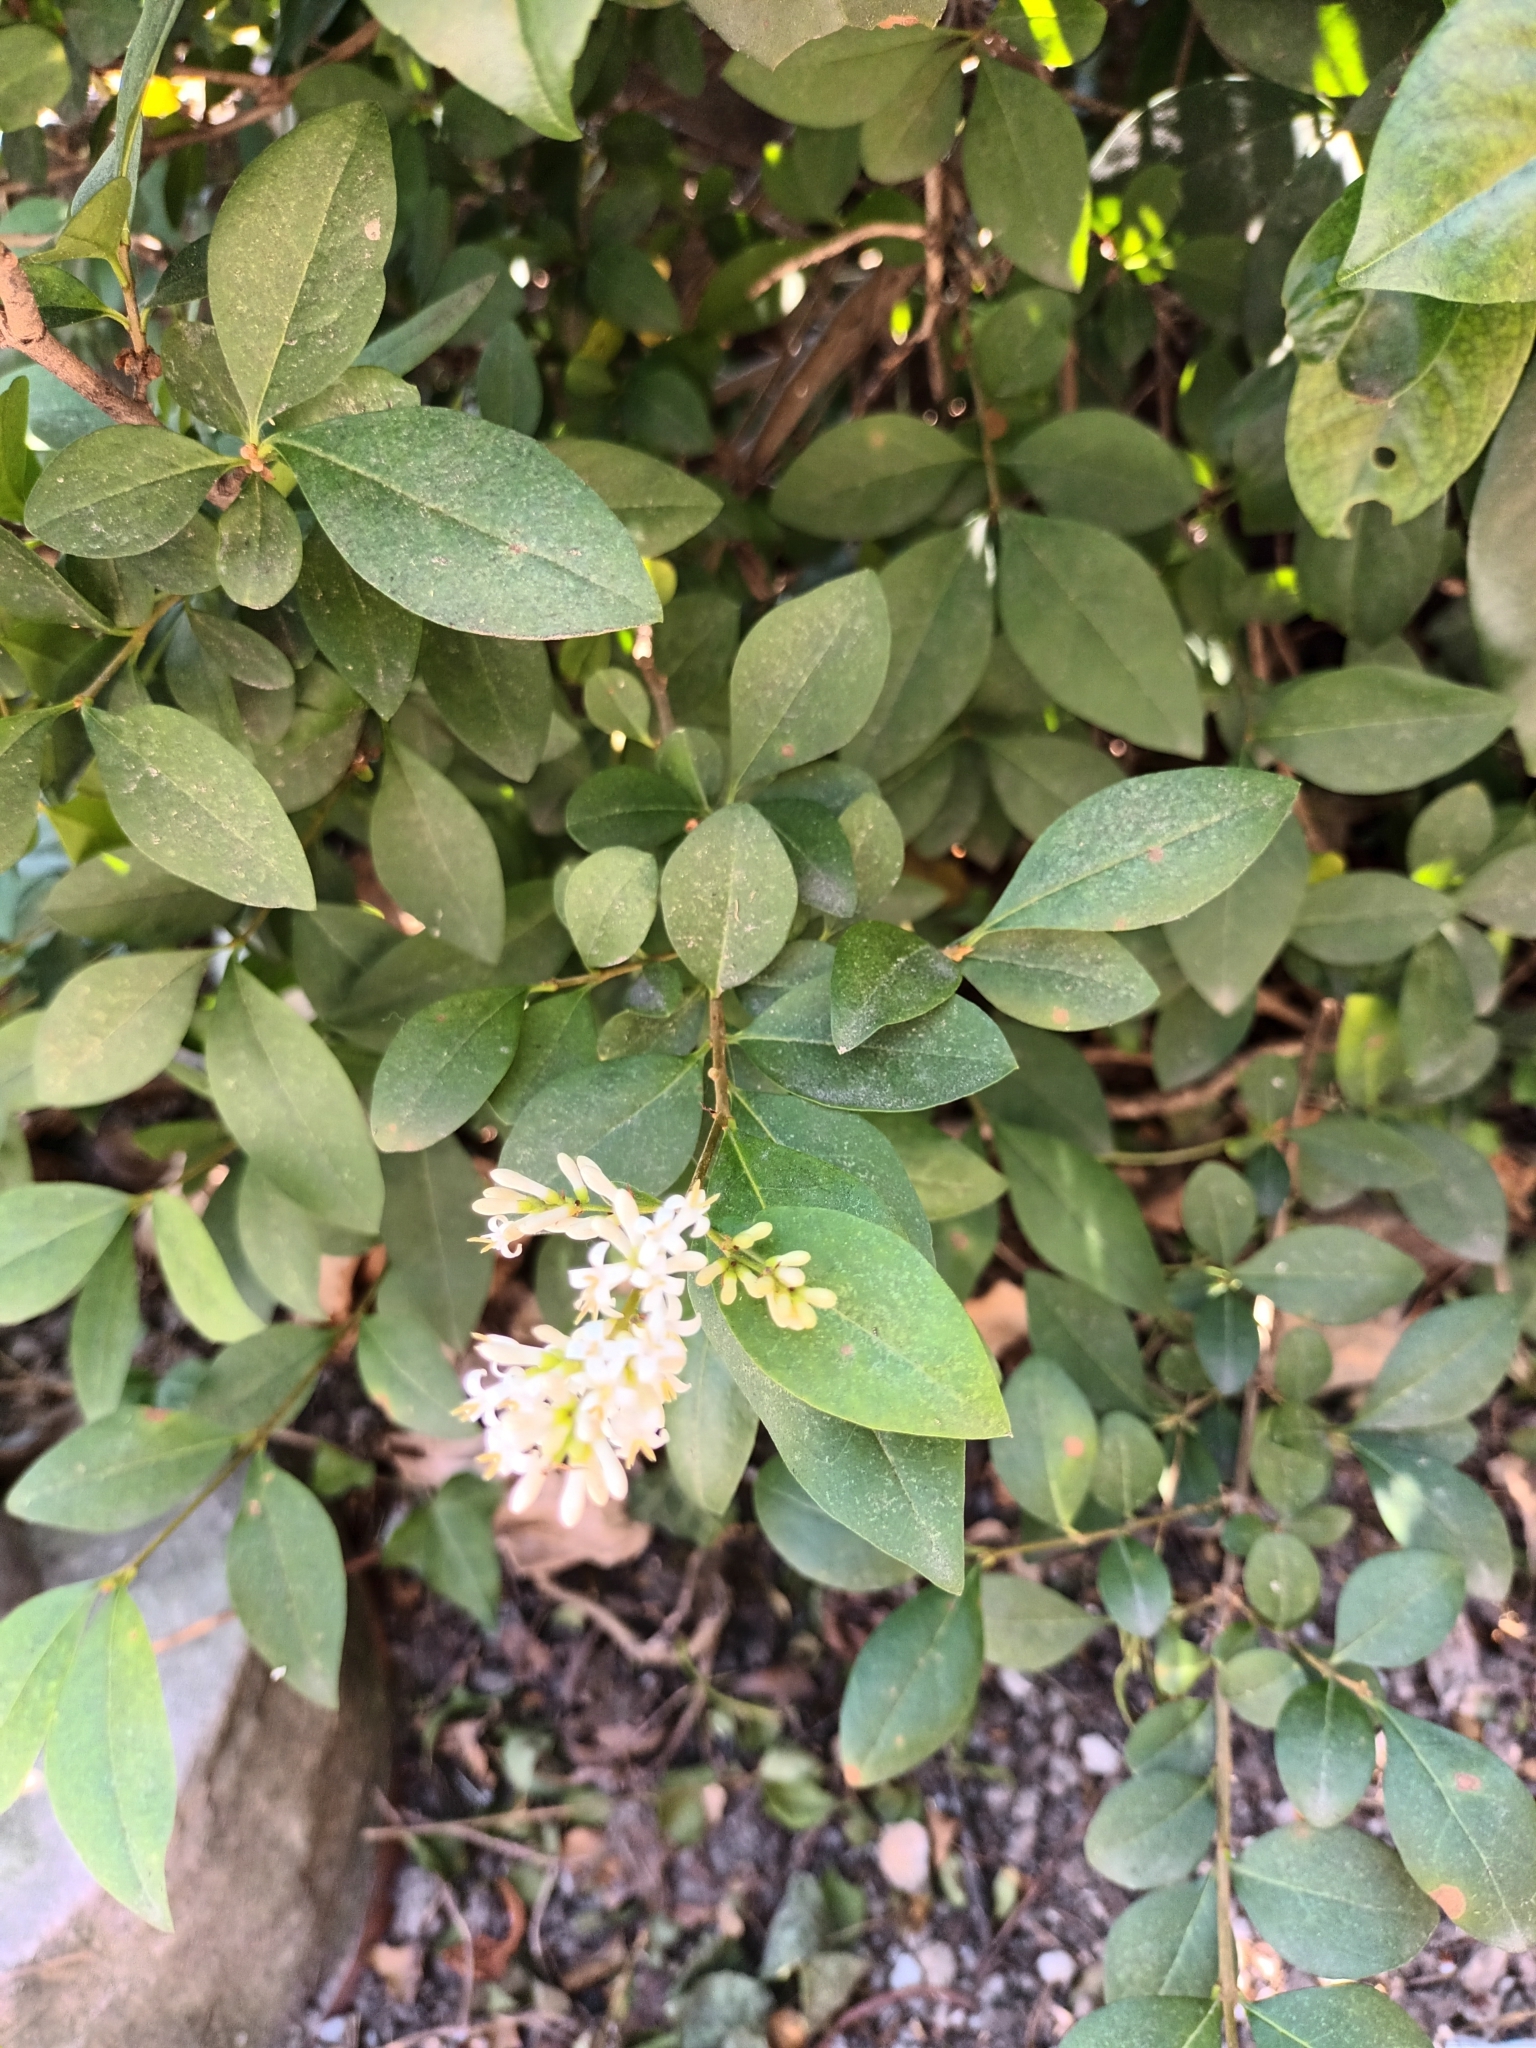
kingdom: Plantae
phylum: Tracheophyta
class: Magnoliopsida
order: Lamiales
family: Oleaceae
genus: Ligustrum
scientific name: Ligustrum vulgare
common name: Wild privet
